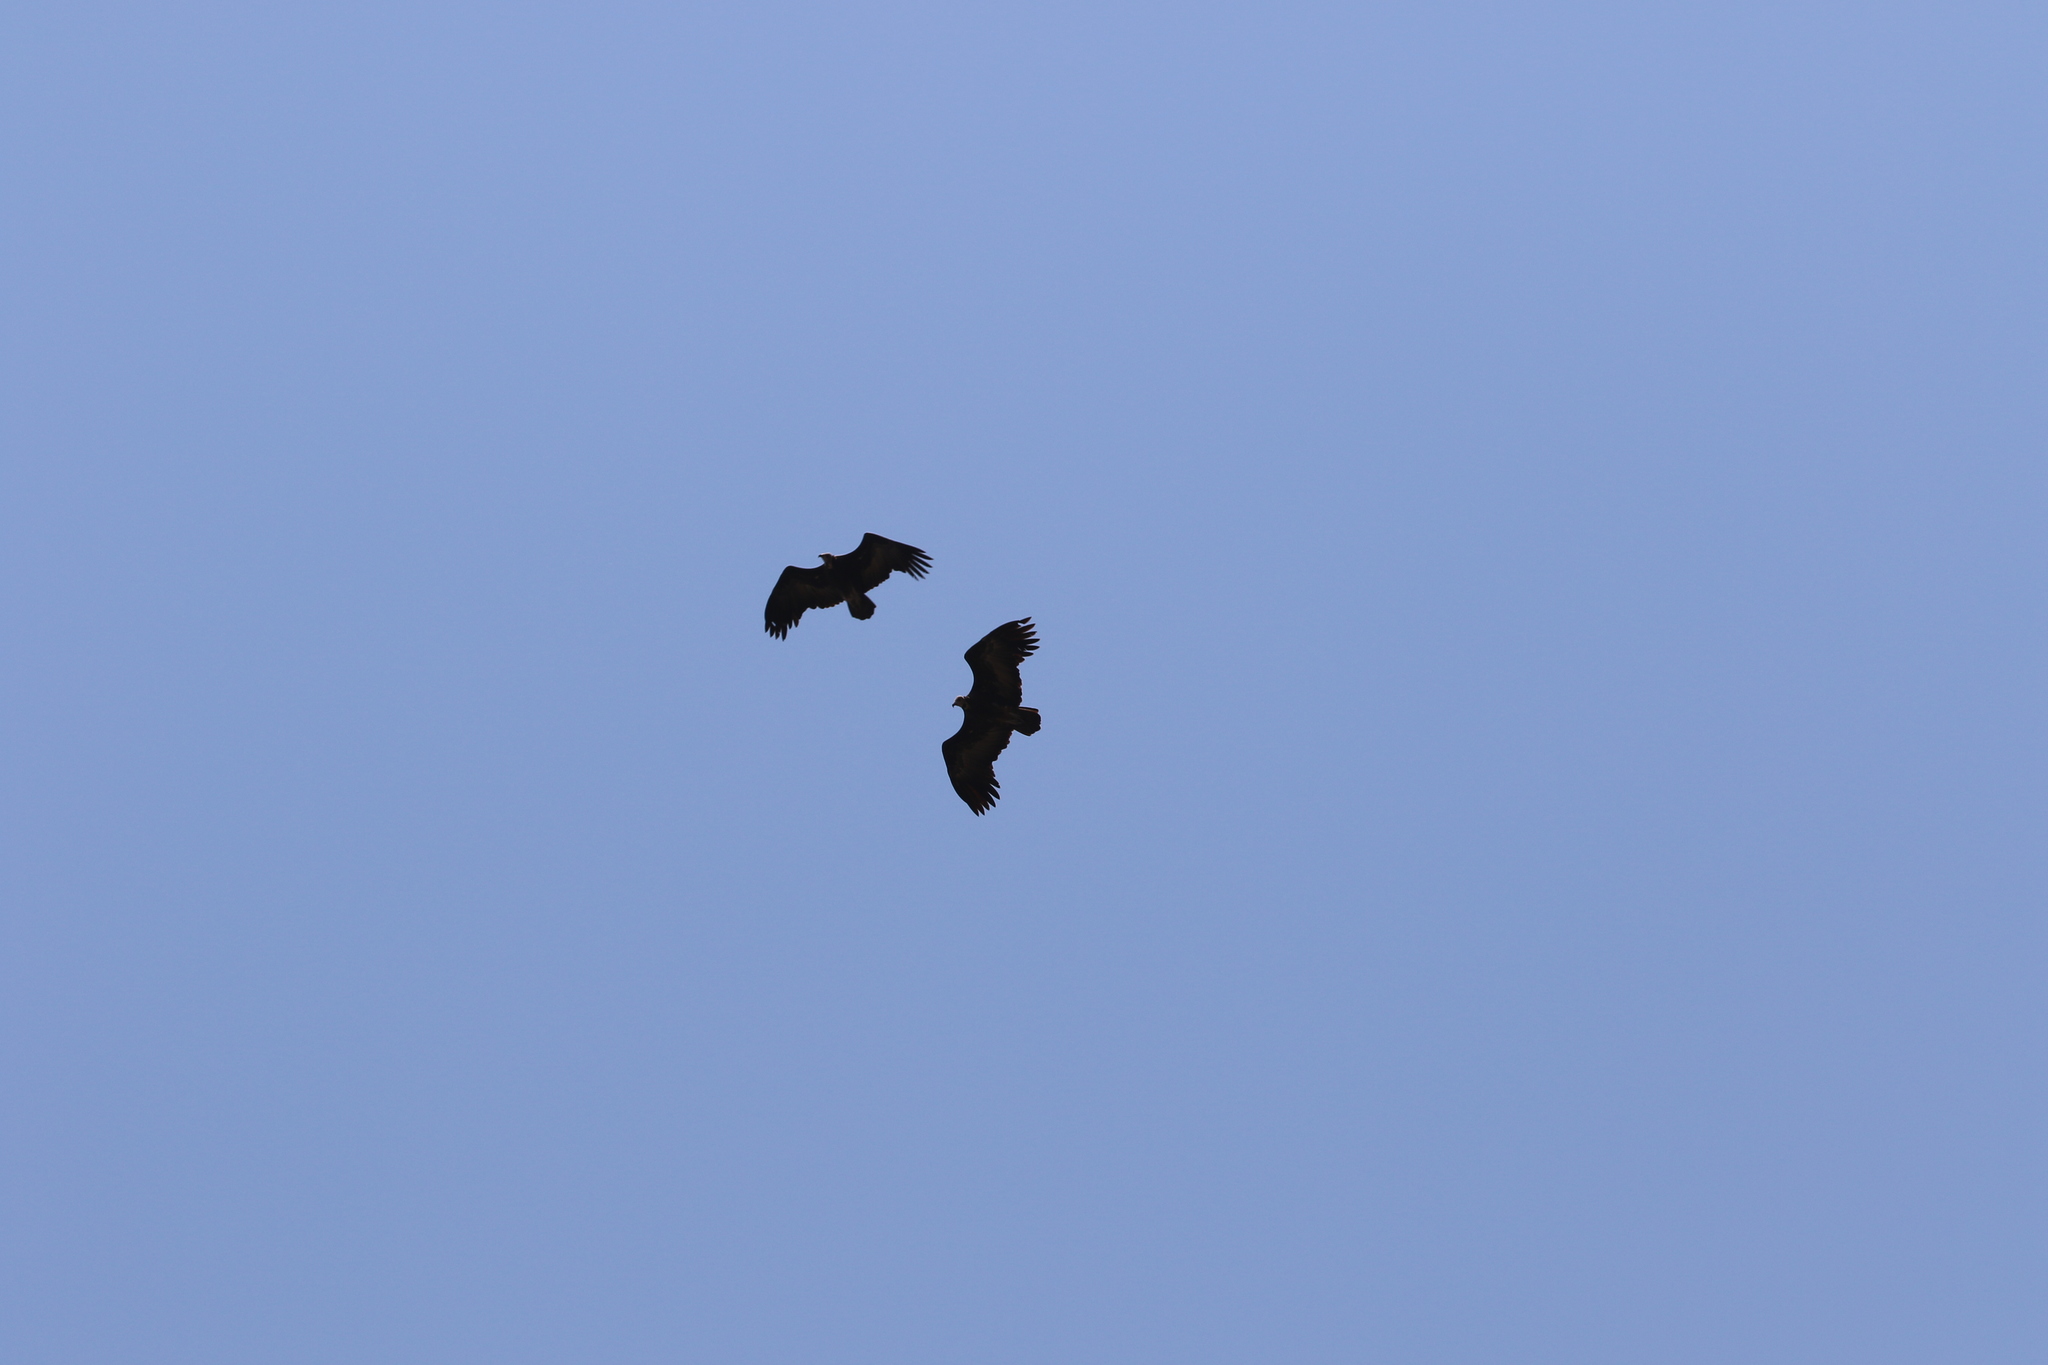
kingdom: Animalia
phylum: Chordata
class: Aves
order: Accipitriformes
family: Accipitridae
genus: Necrosyrtes
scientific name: Necrosyrtes monachus
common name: Hooded vulture
